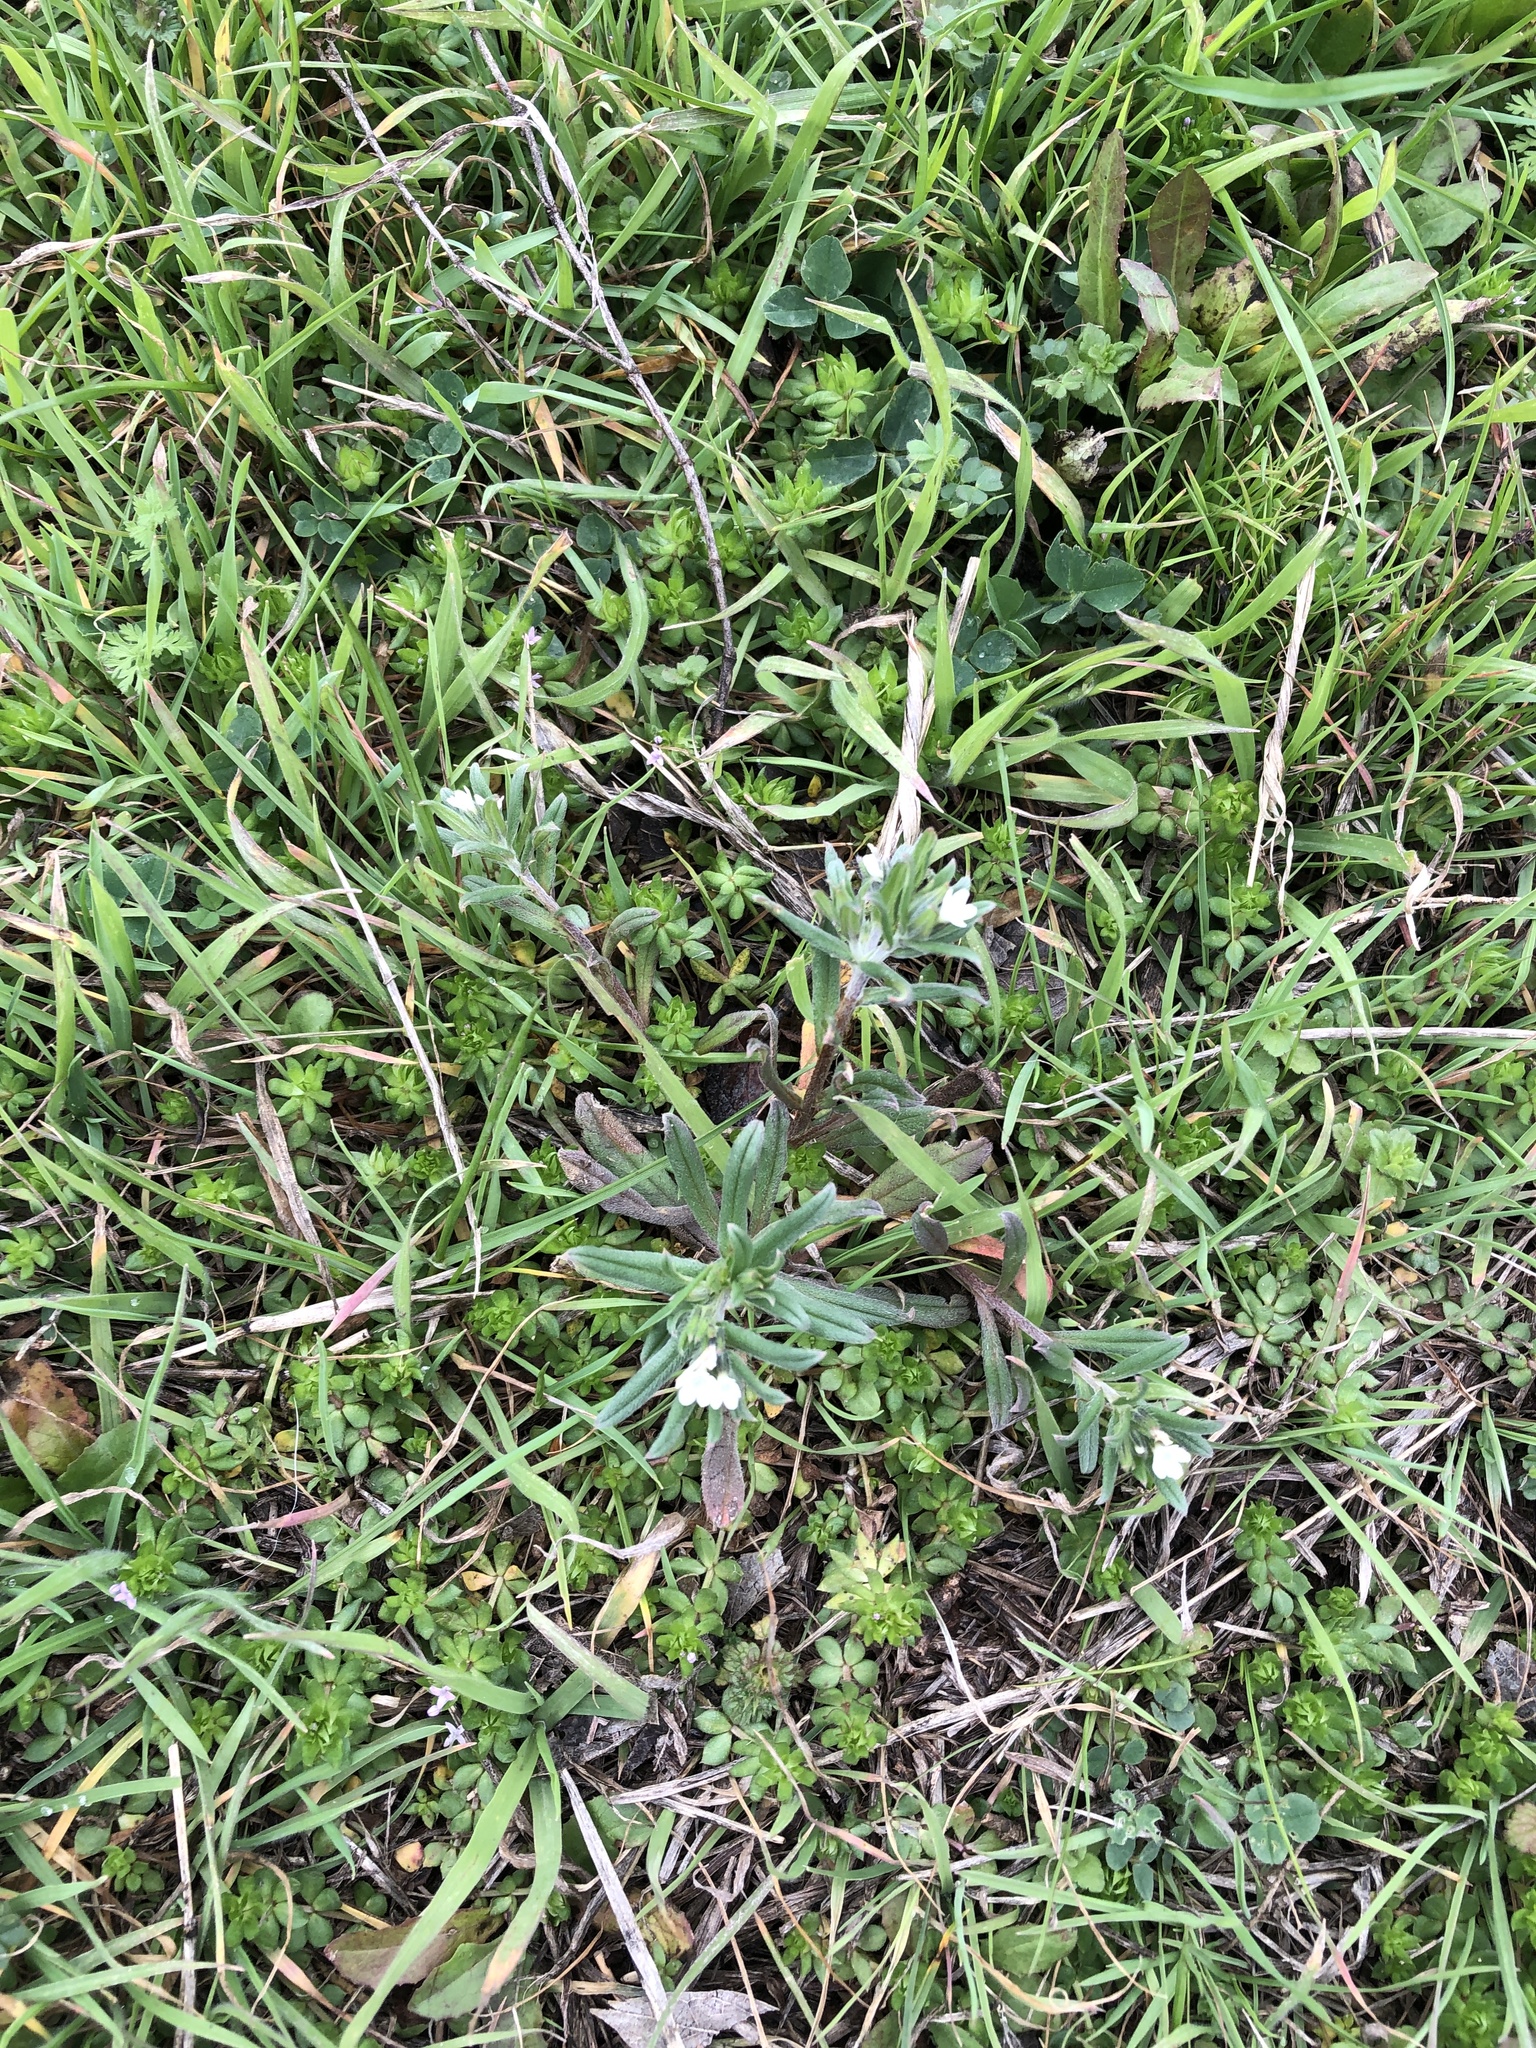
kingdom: Plantae
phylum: Tracheophyta
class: Magnoliopsida
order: Boraginales
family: Boraginaceae
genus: Buglossoides
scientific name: Buglossoides arvensis
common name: Corn gromwell
